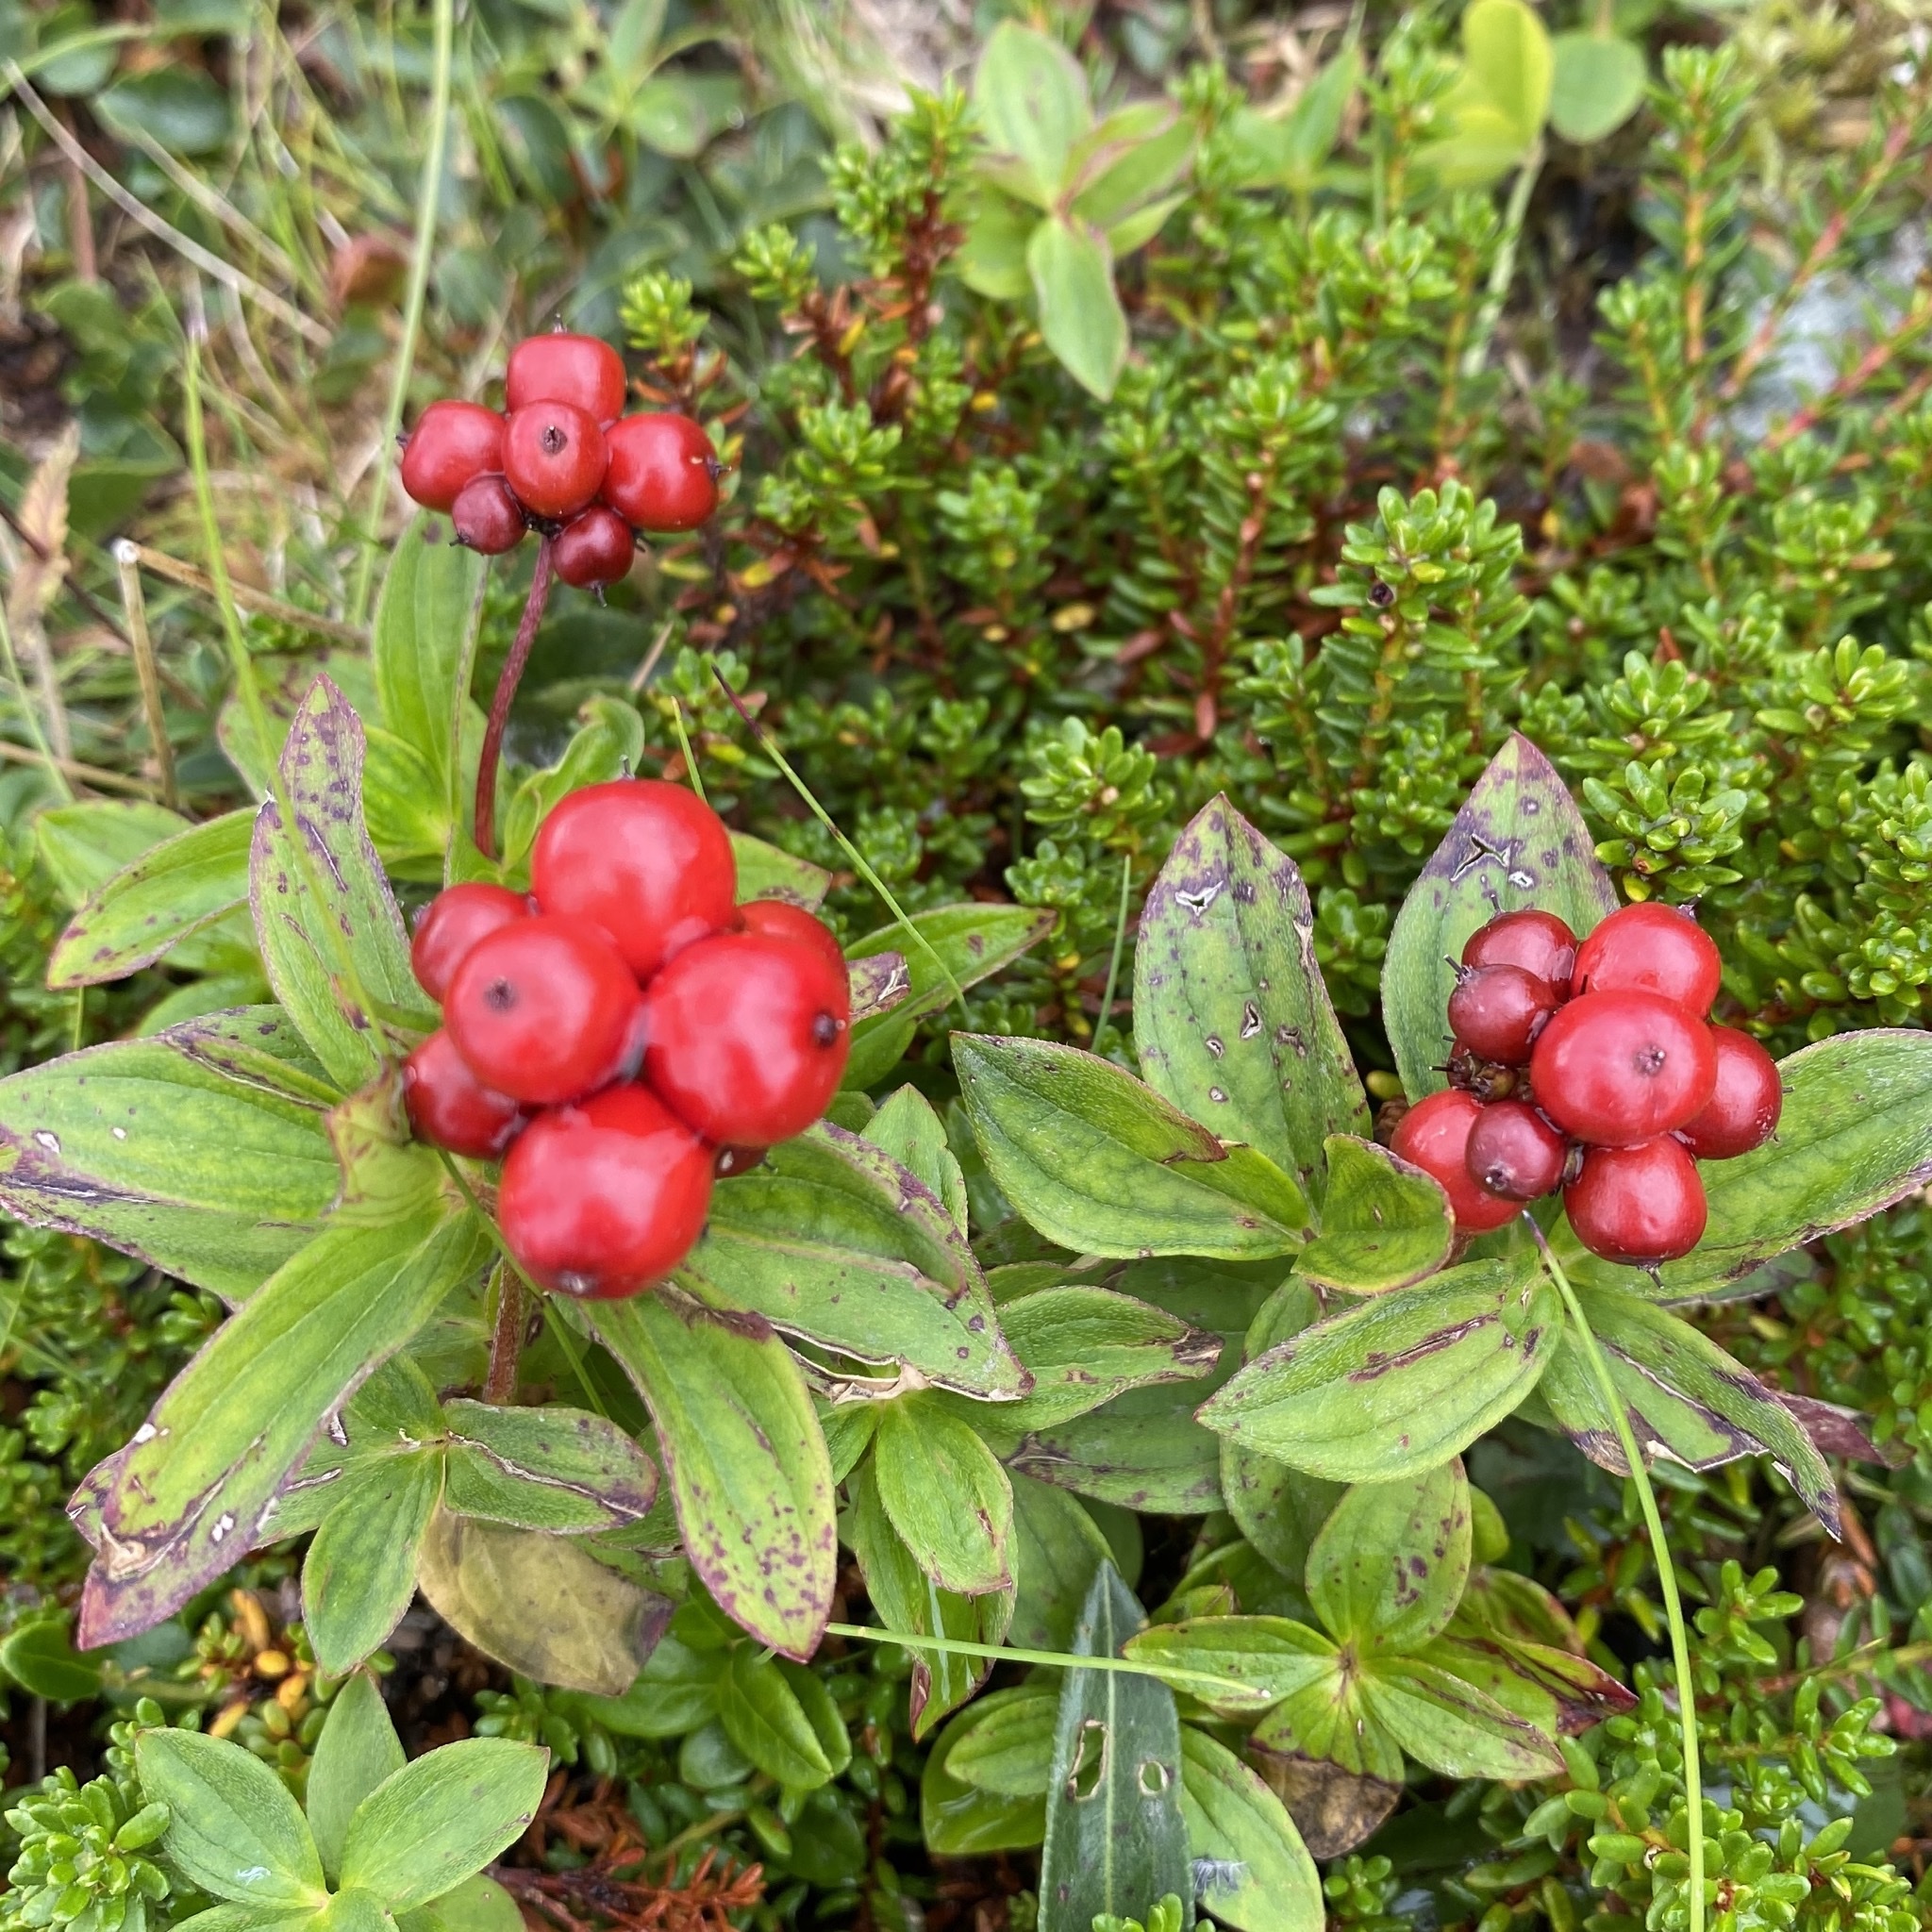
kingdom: Plantae
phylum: Tracheophyta
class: Magnoliopsida
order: Cornales
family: Cornaceae
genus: Cornus
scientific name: Cornus suecica
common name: Dwarf cornel
